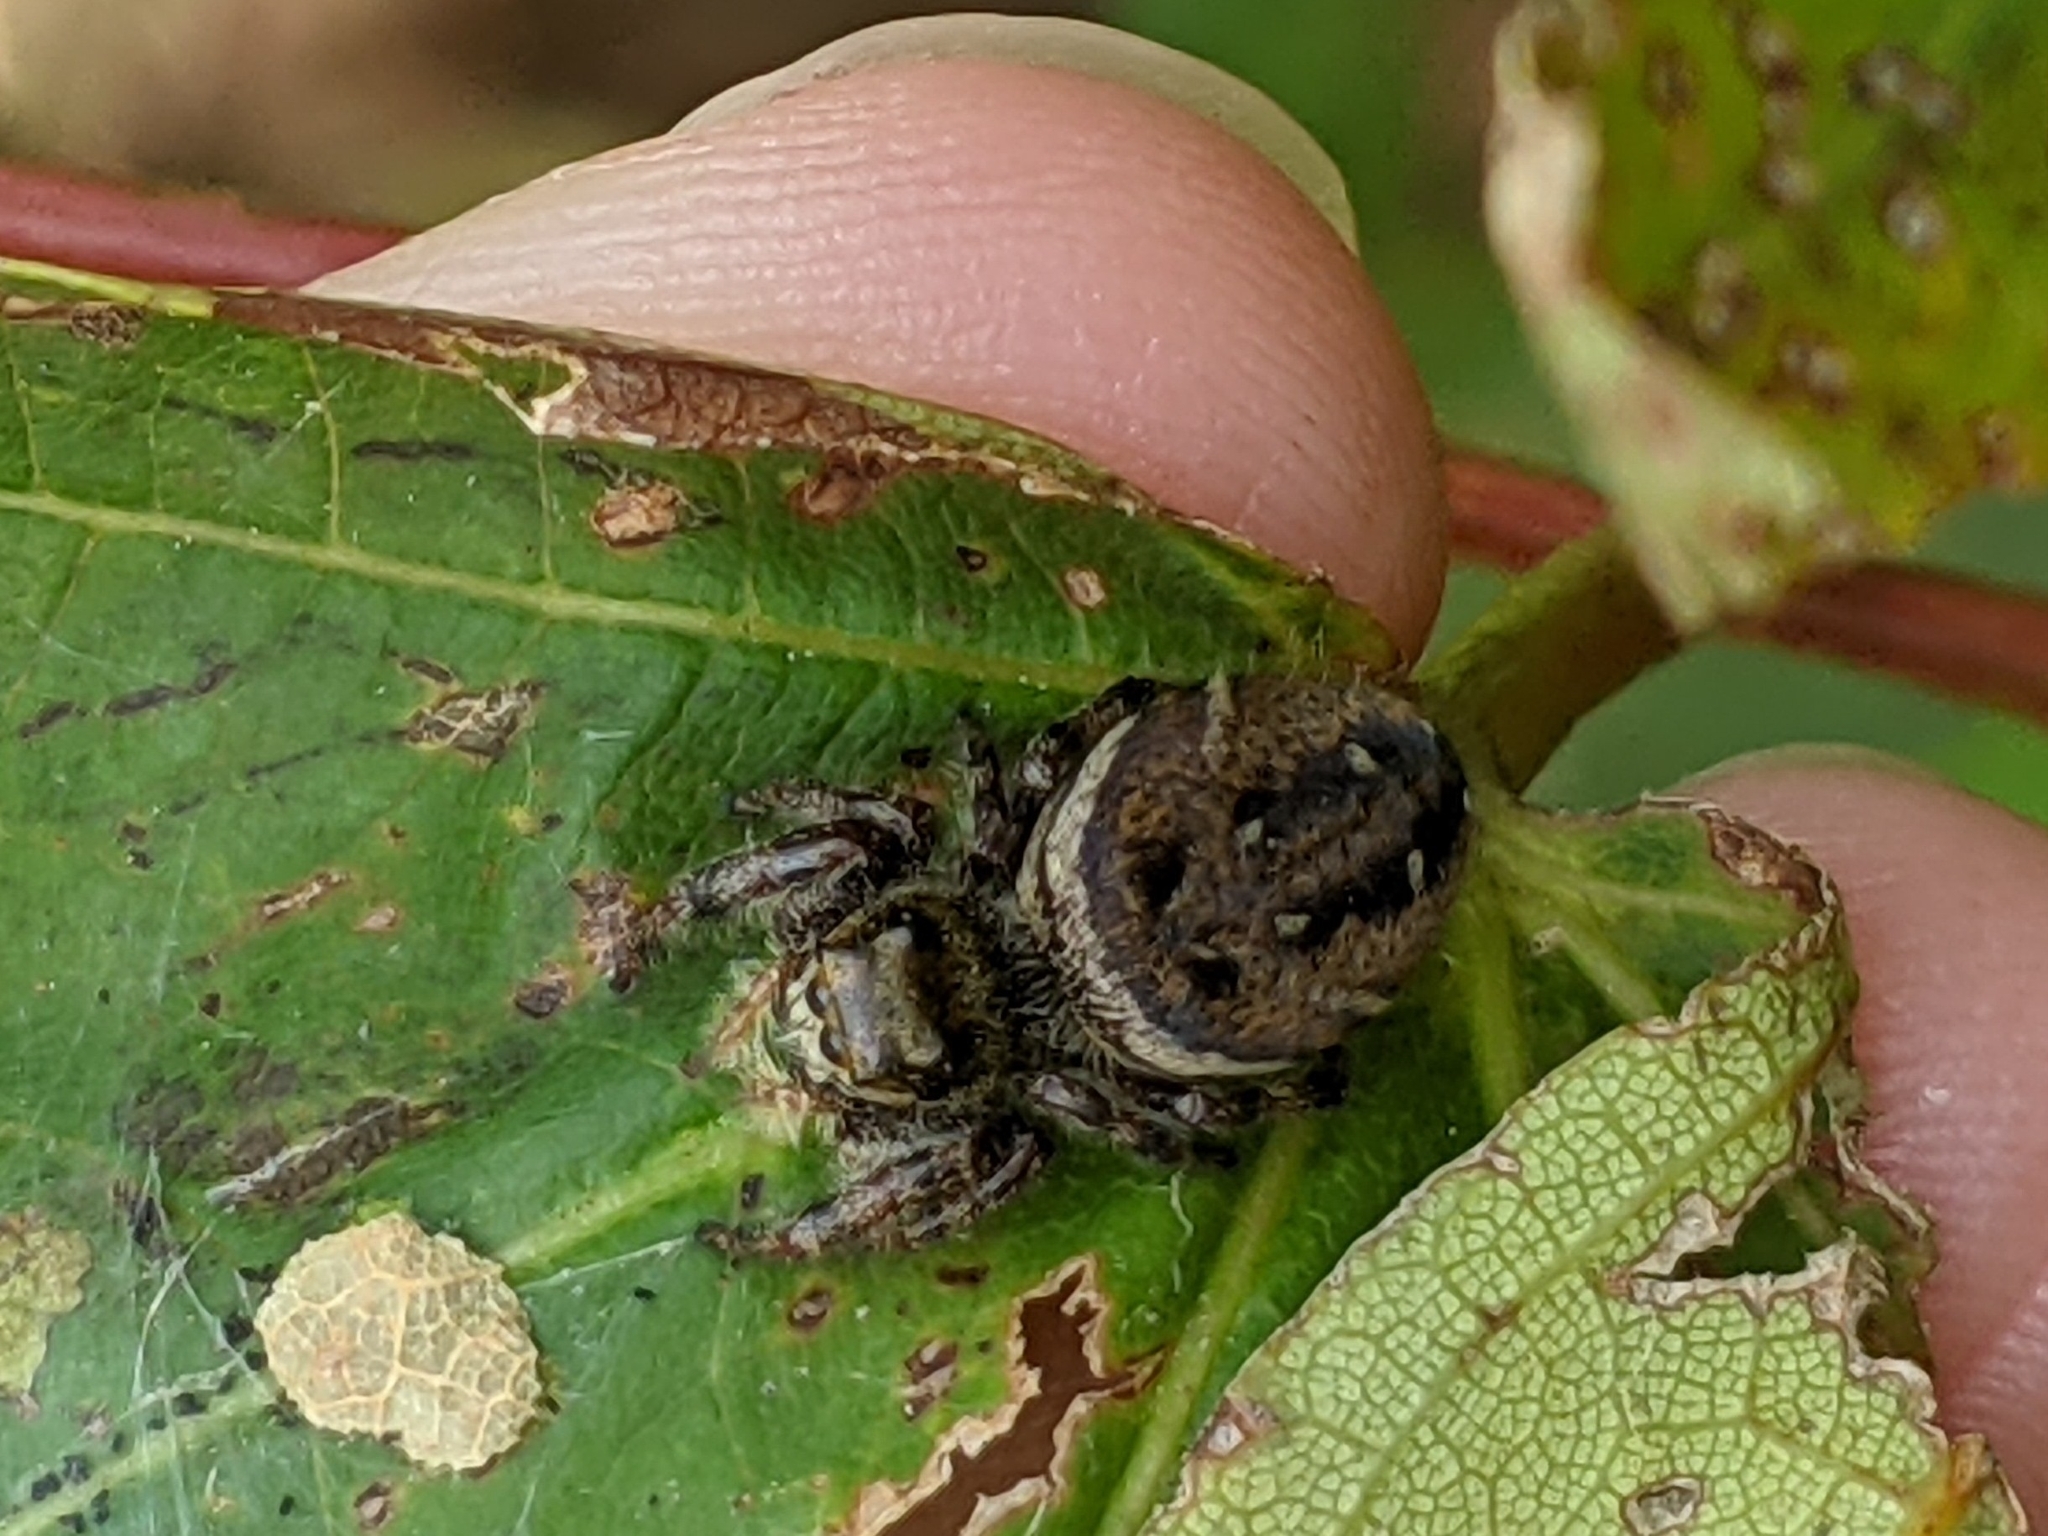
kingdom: Animalia
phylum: Arthropoda
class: Arachnida
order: Araneae
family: Salticidae
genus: Phidippus
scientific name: Phidippus clarus
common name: Brilliant jumping spider
